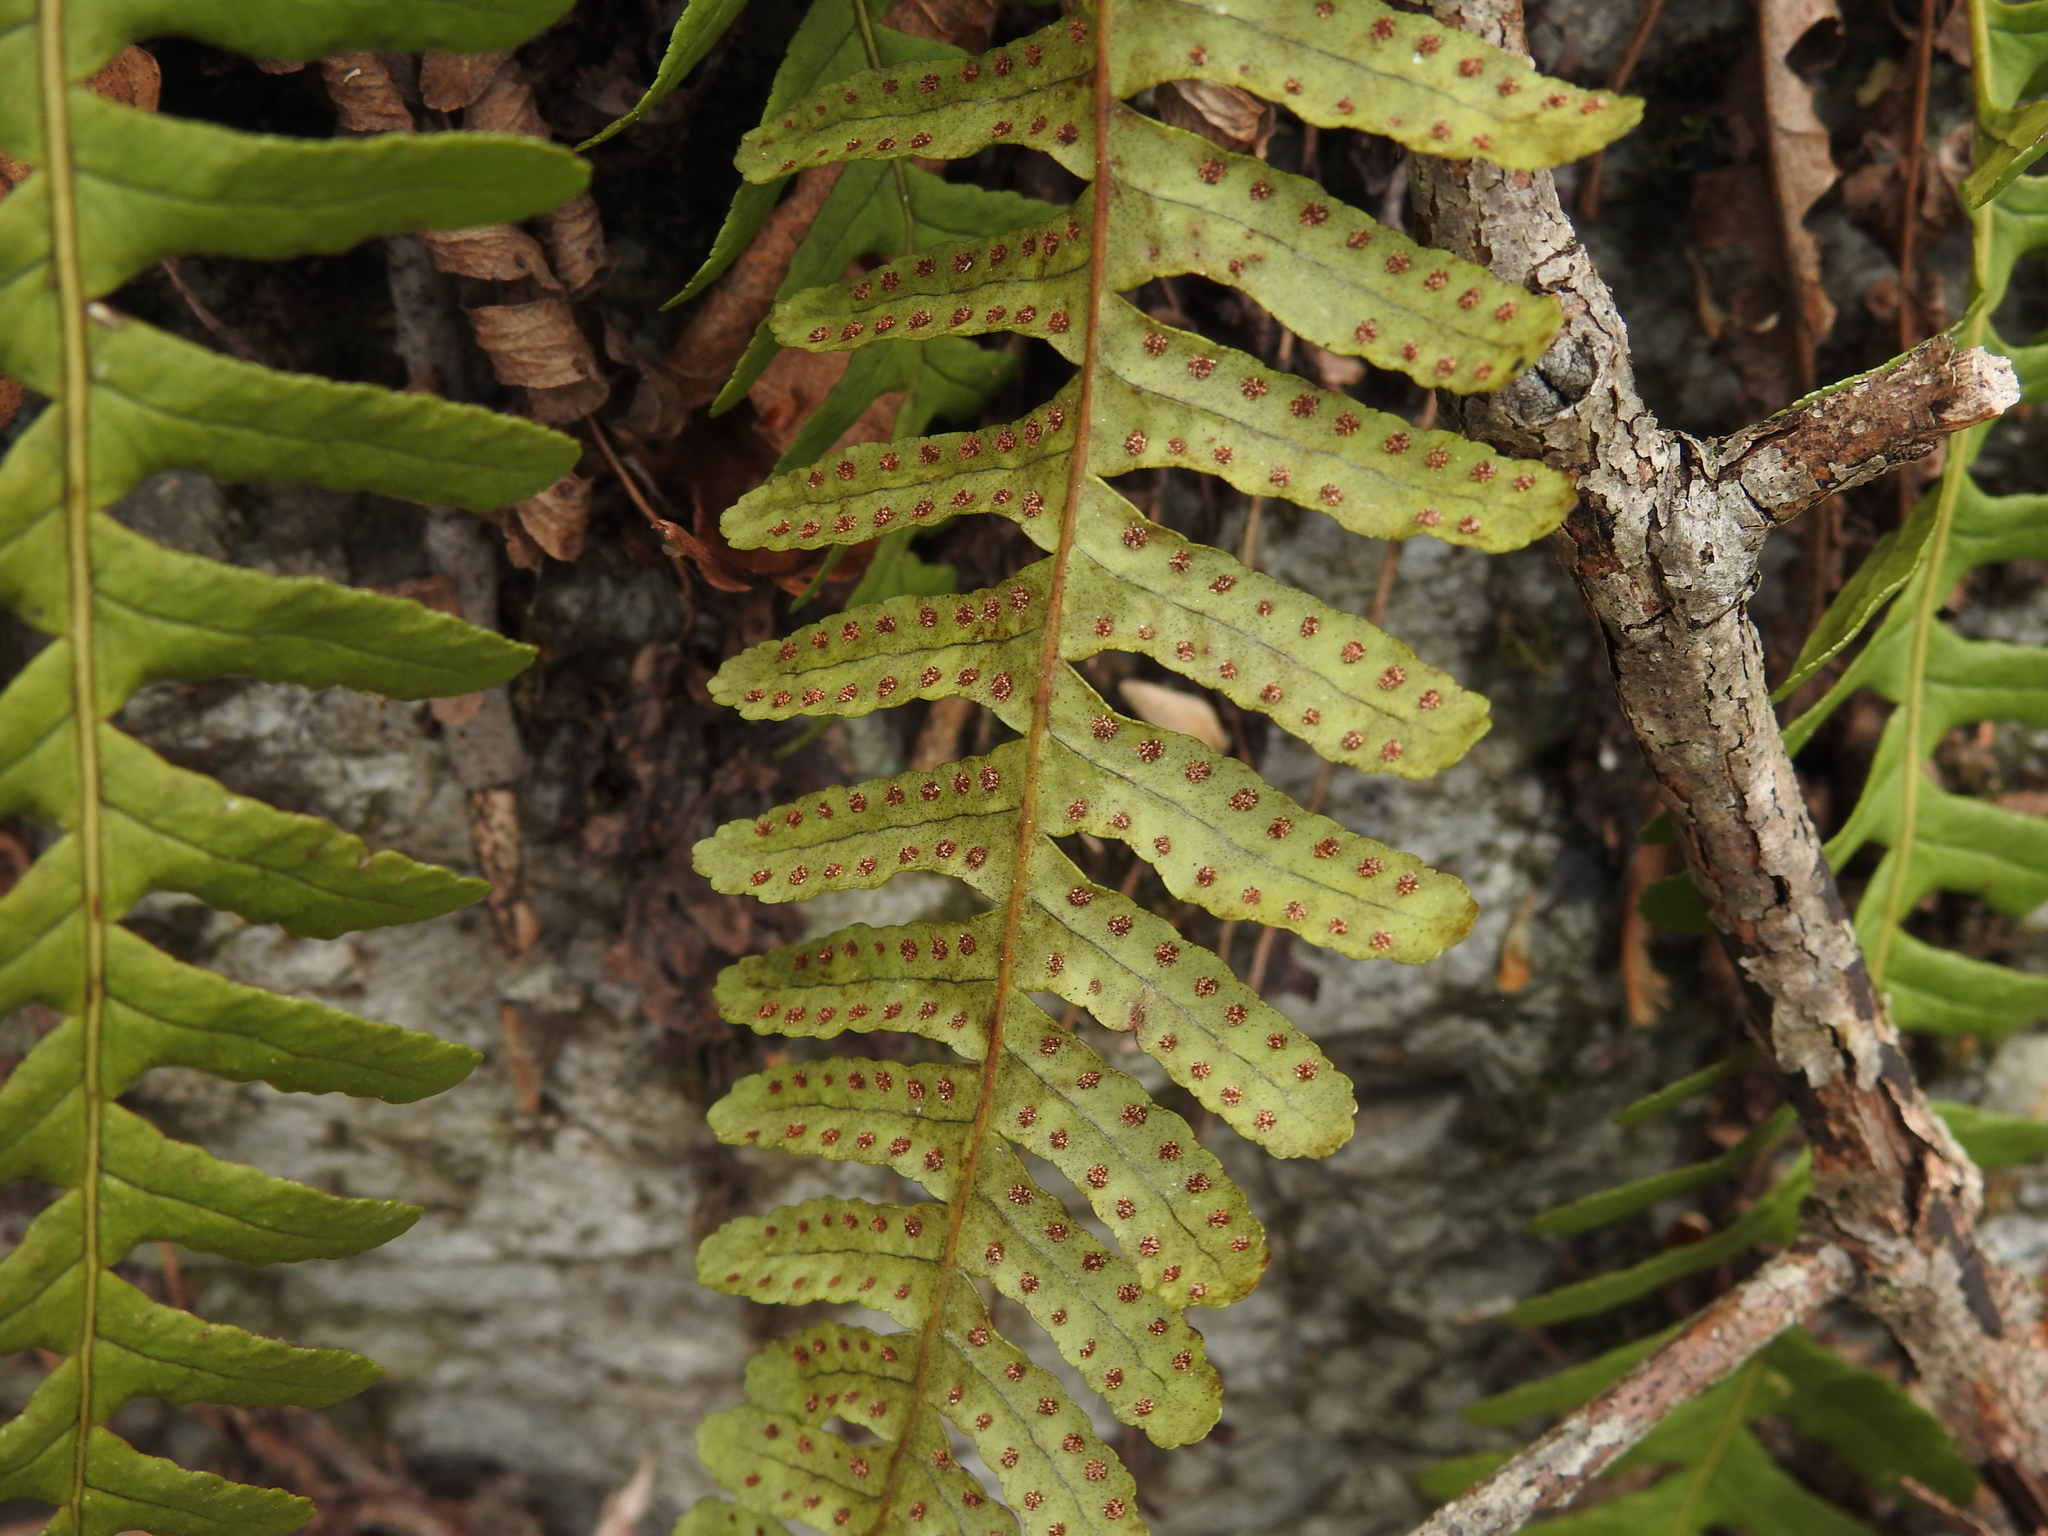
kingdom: Plantae
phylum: Tracheophyta
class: Polypodiopsida
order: Polypodiales
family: Polypodiaceae
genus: Polypodium
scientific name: Polypodium virginianum
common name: American wall fern
